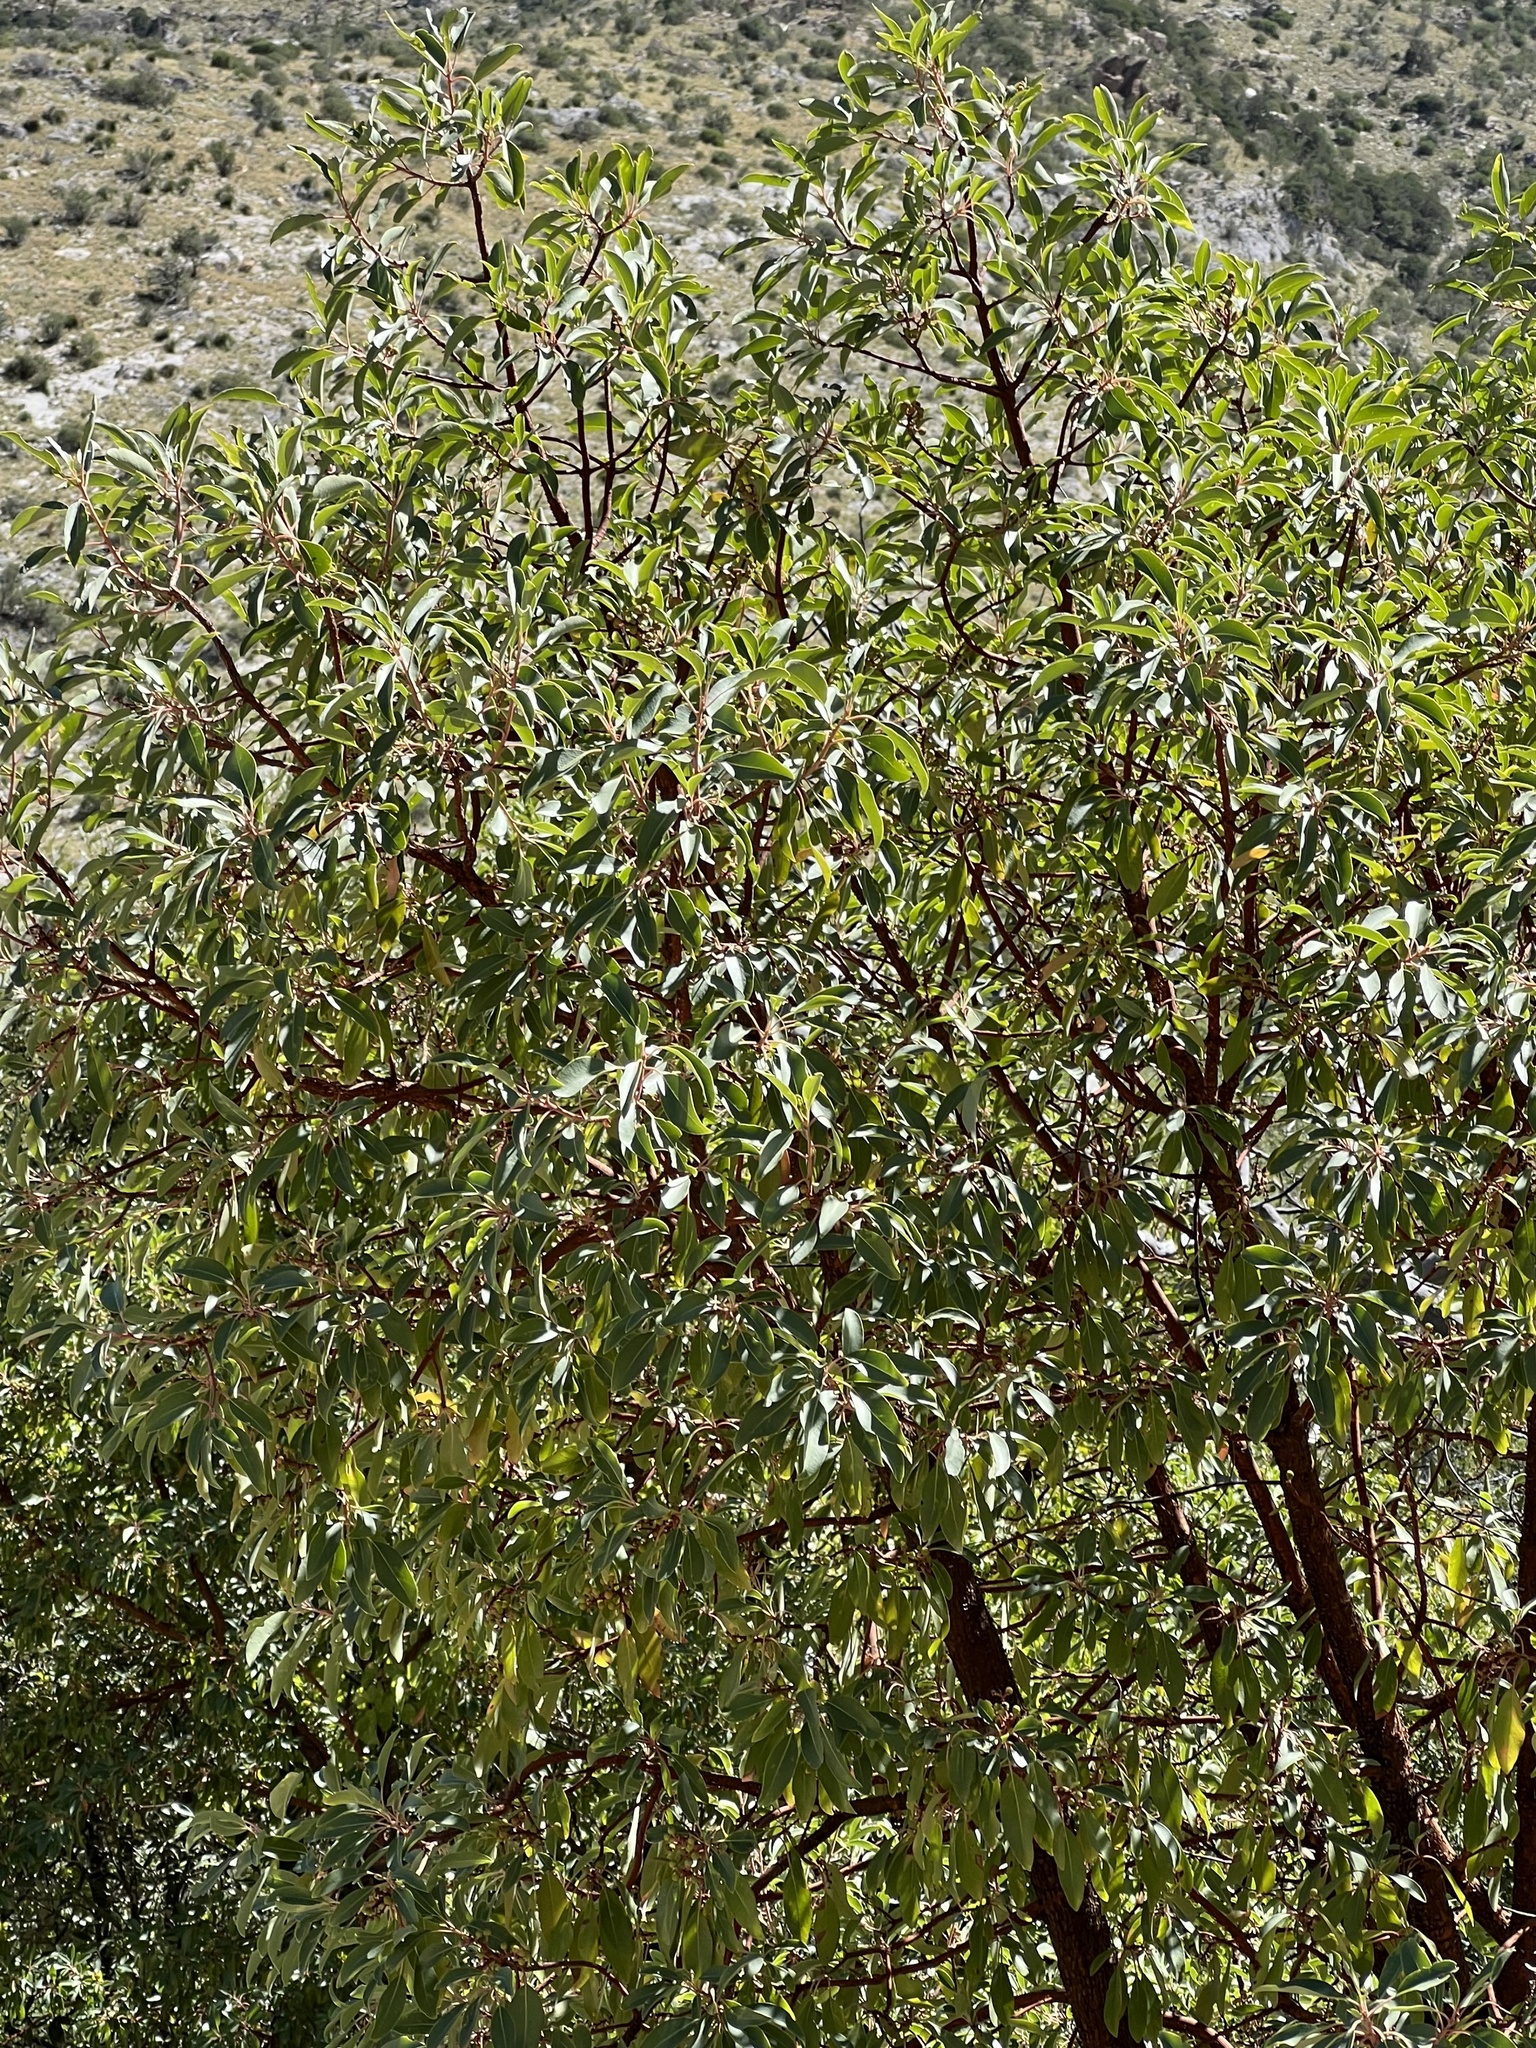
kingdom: Plantae
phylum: Tracheophyta
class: Magnoliopsida
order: Ericales
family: Ericaceae
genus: Arbutus
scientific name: Arbutus arizonica
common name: Arizona madrone
